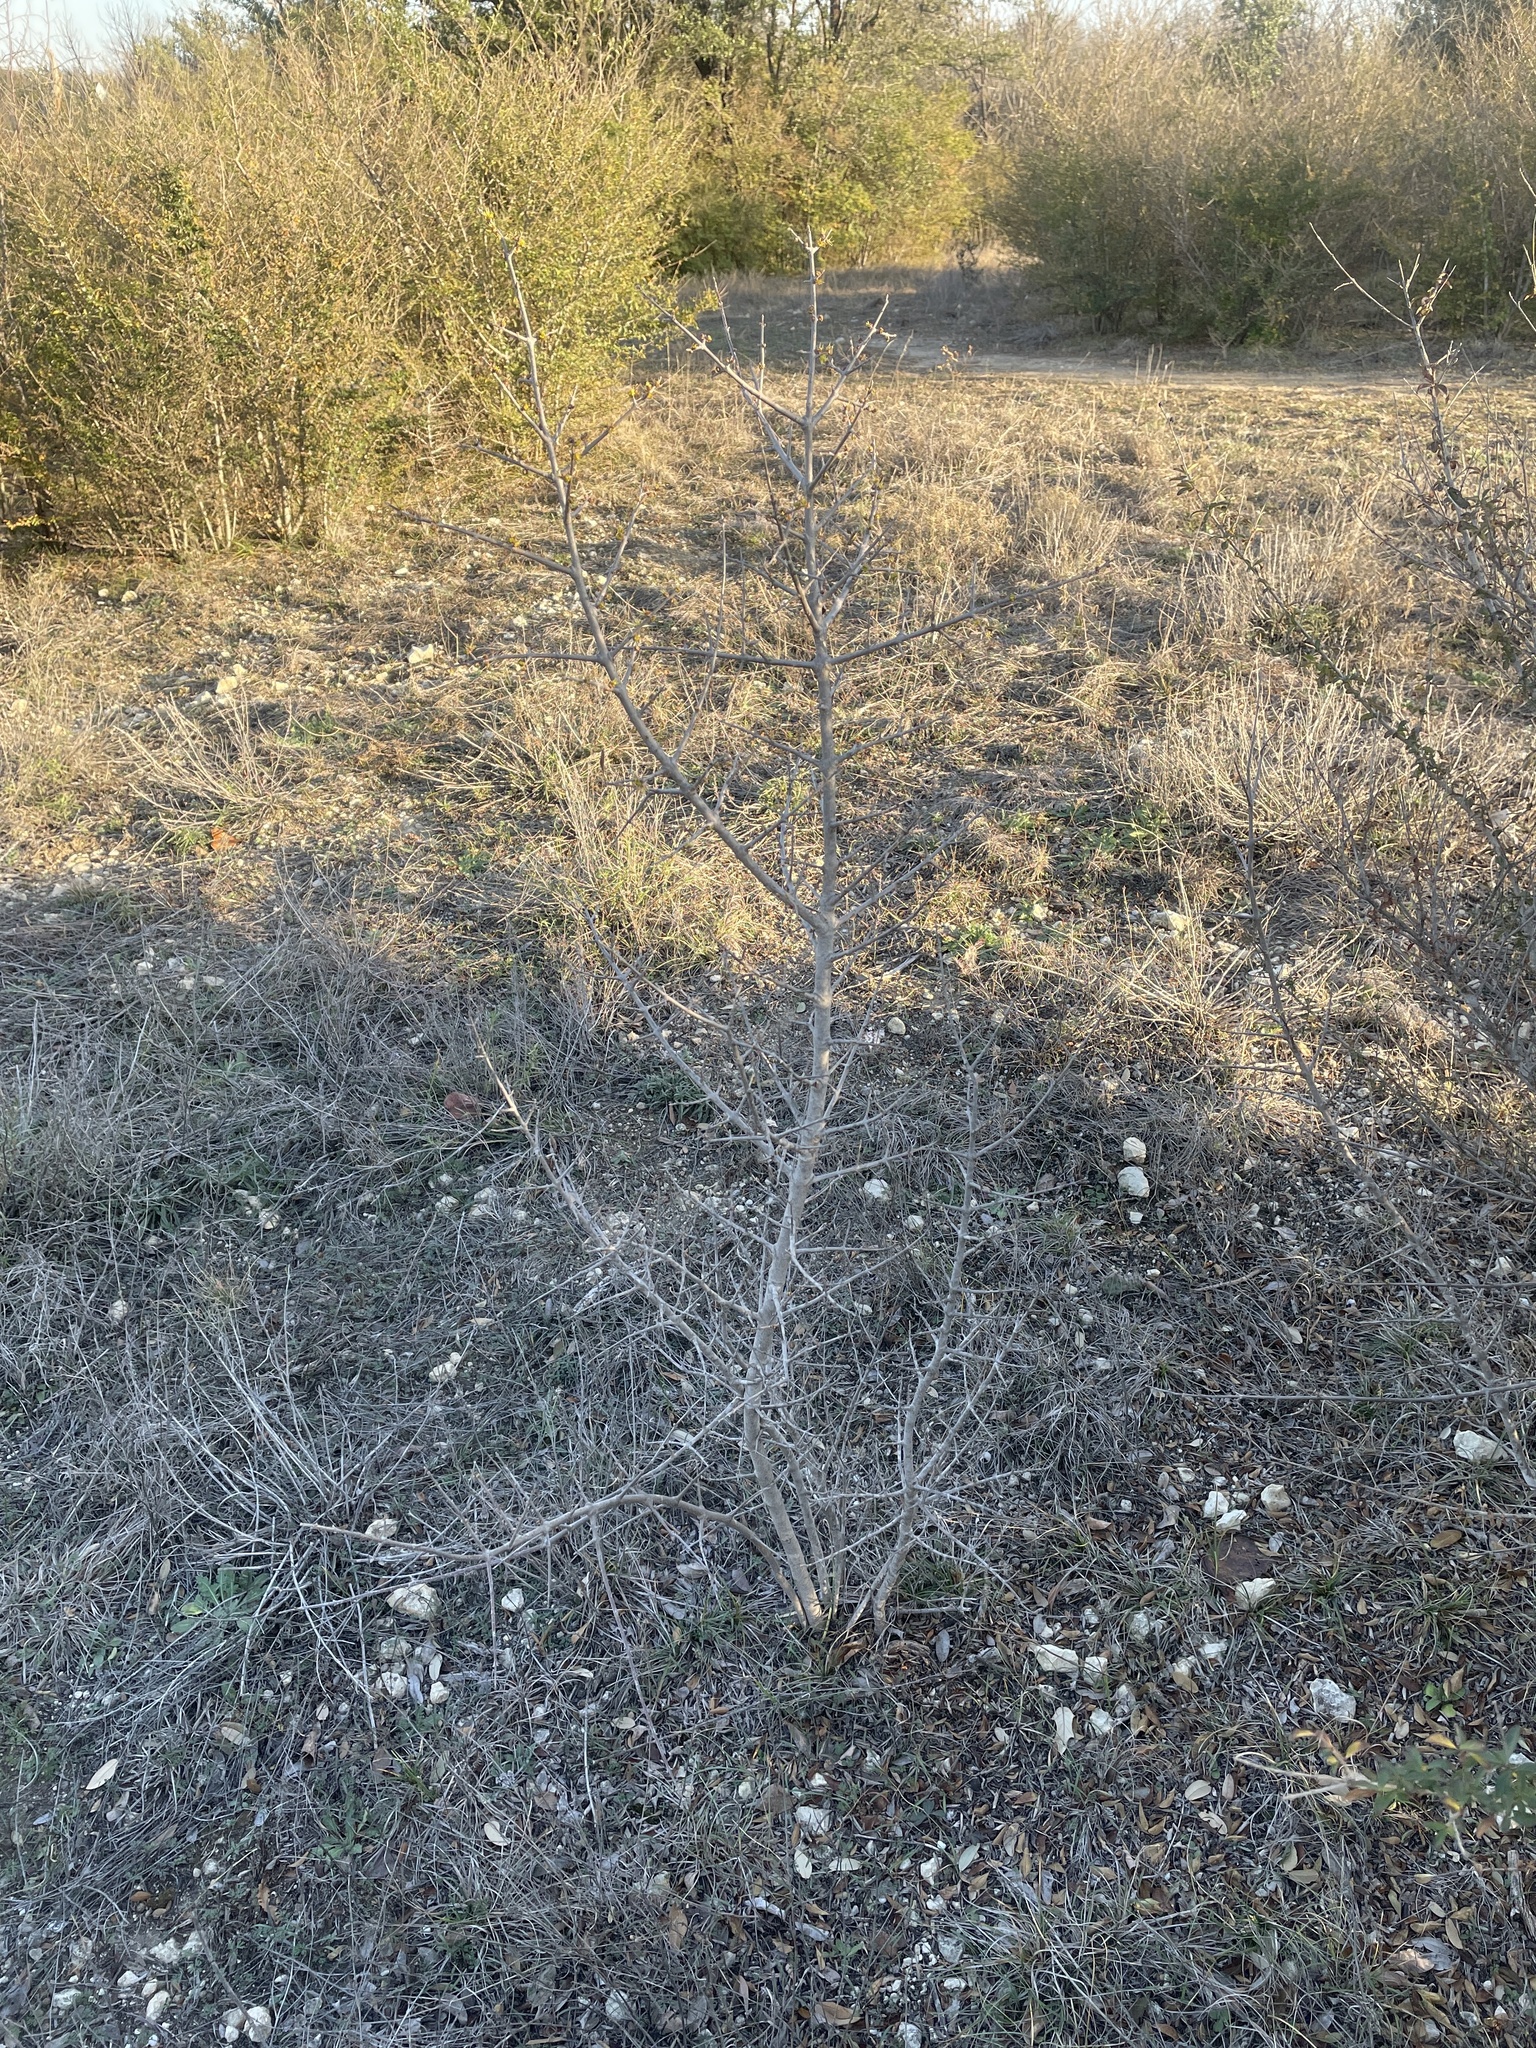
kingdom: Plantae
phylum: Tracheophyta
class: Magnoliopsida
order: Lamiales
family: Oleaceae
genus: Forestiera
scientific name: Forestiera pubescens
